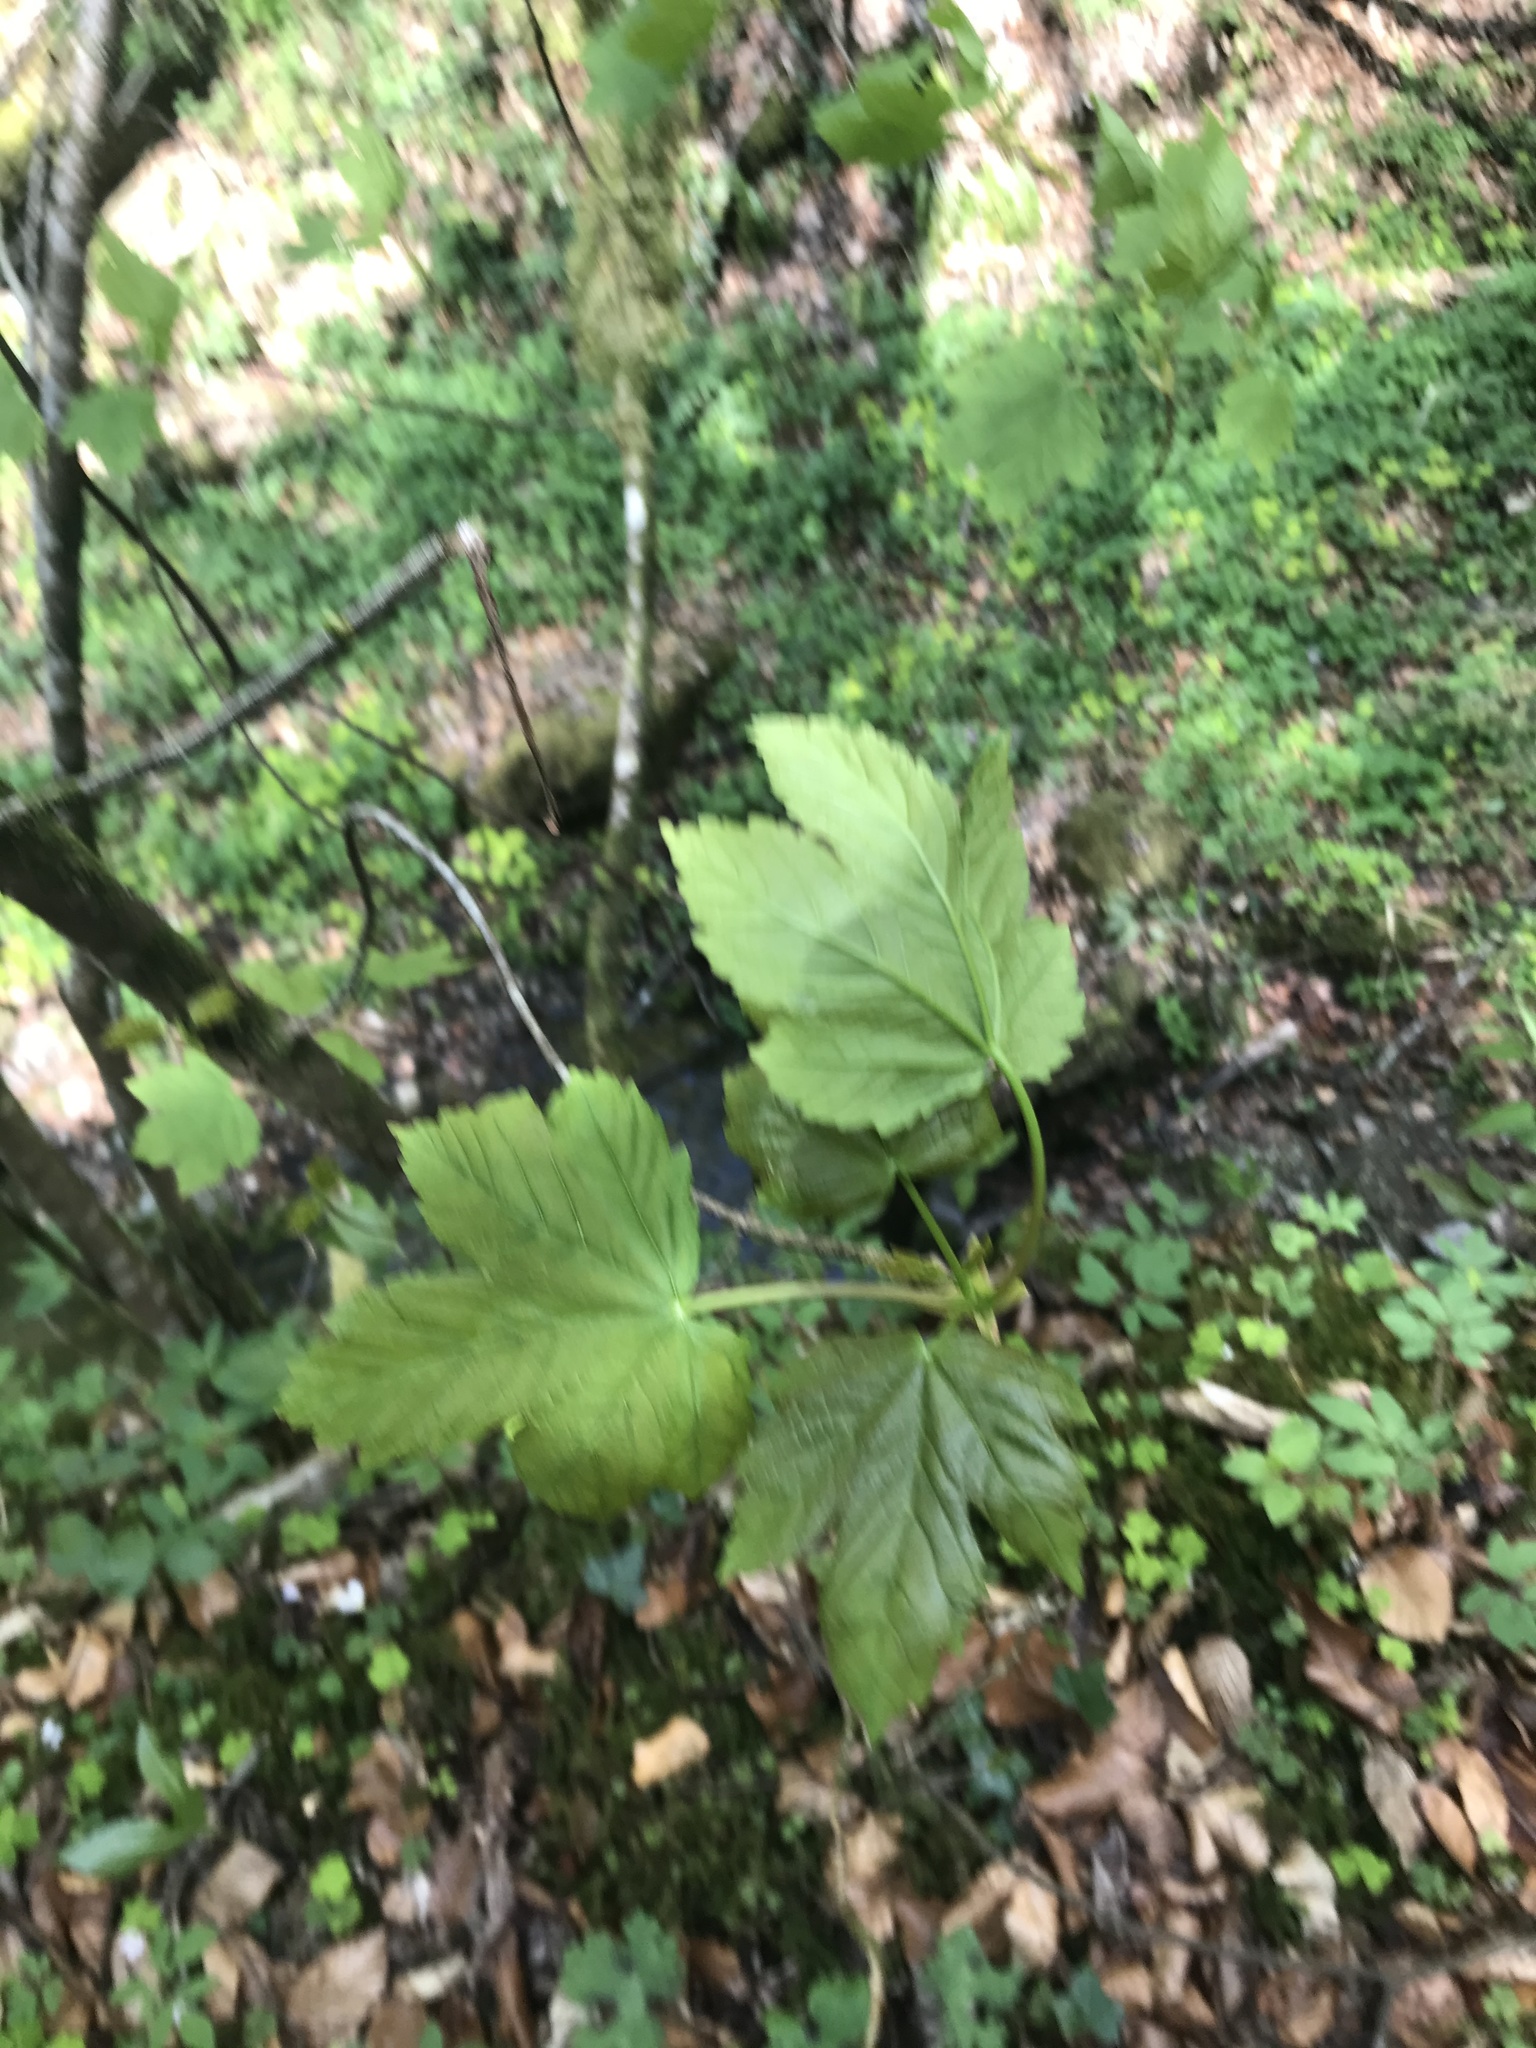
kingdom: Plantae
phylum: Tracheophyta
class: Magnoliopsida
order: Sapindales
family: Sapindaceae
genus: Acer
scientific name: Acer pseudoplatanus
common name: Sycamore
